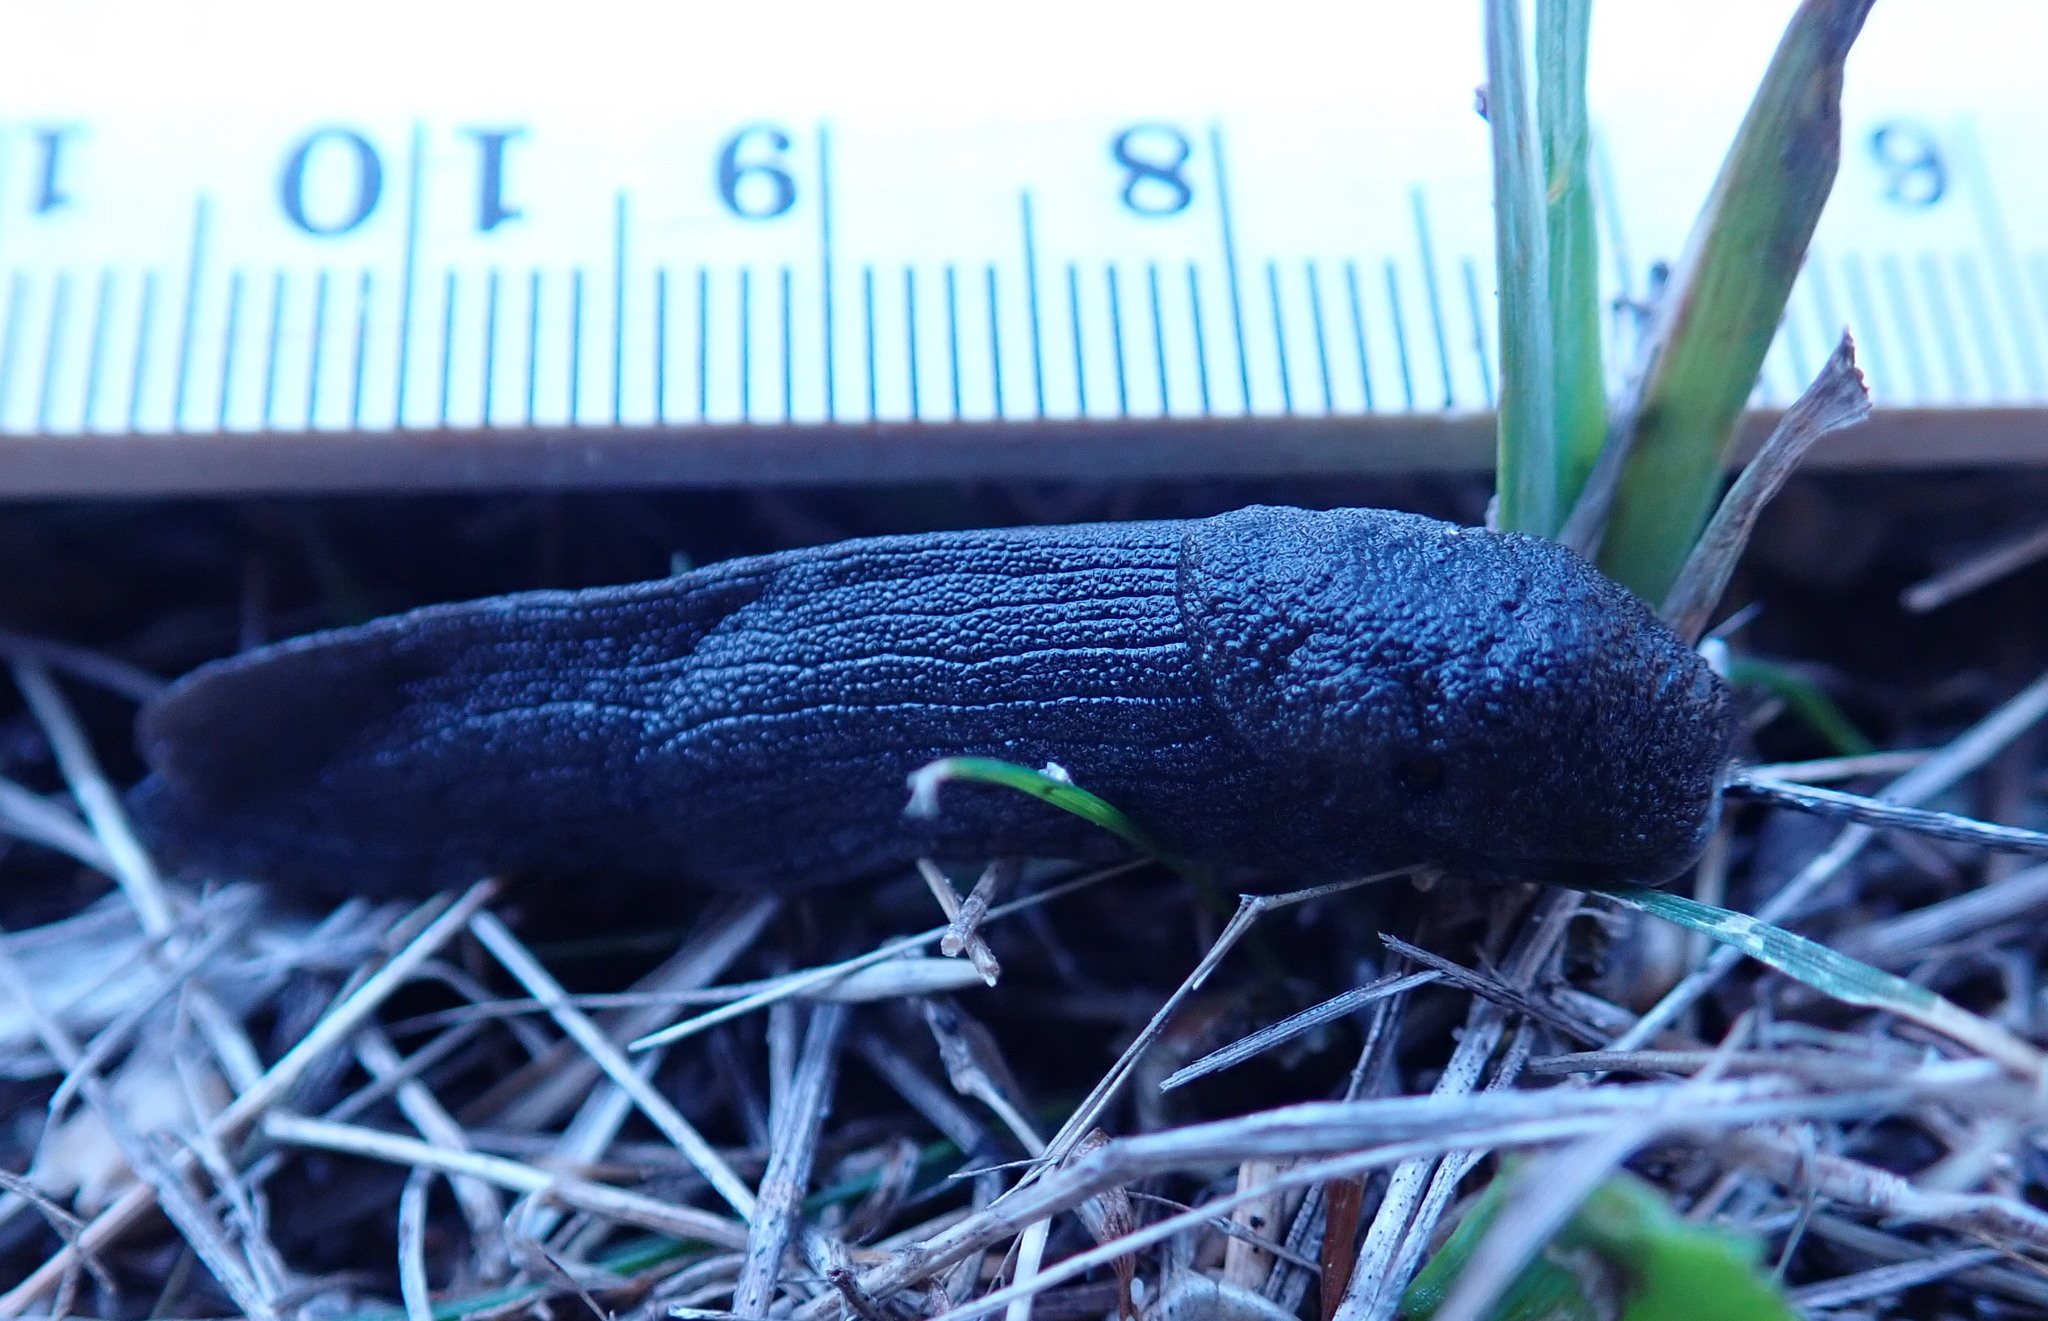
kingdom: Animalia
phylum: Mollusca
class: Gastropoda
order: Stylommatophora
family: Ariolimacidae
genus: Hesperarion
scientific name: Hesperarion niger
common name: Black western slug
